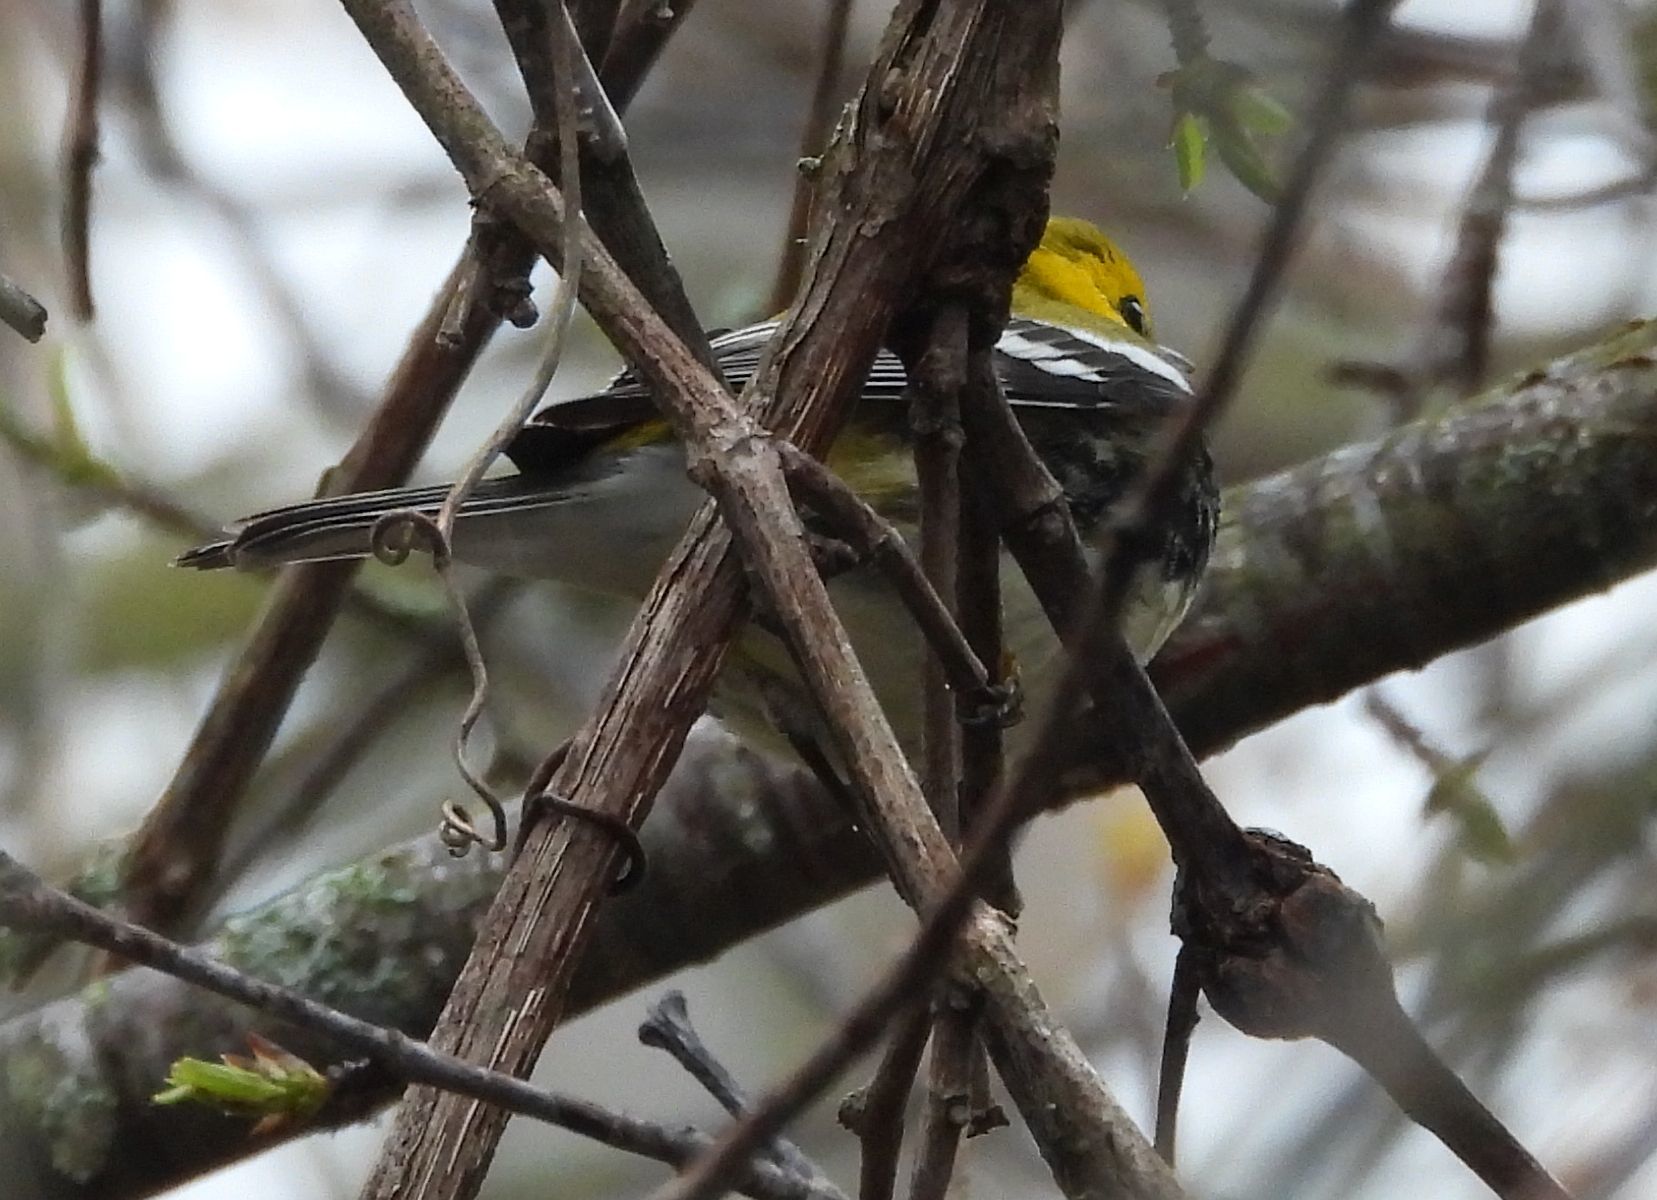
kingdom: Animalia
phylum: Chordata
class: Aves
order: Passeriformes
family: Parulidae
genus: Setophaga
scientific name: Setophaga virens
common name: Black-throated green warbler
